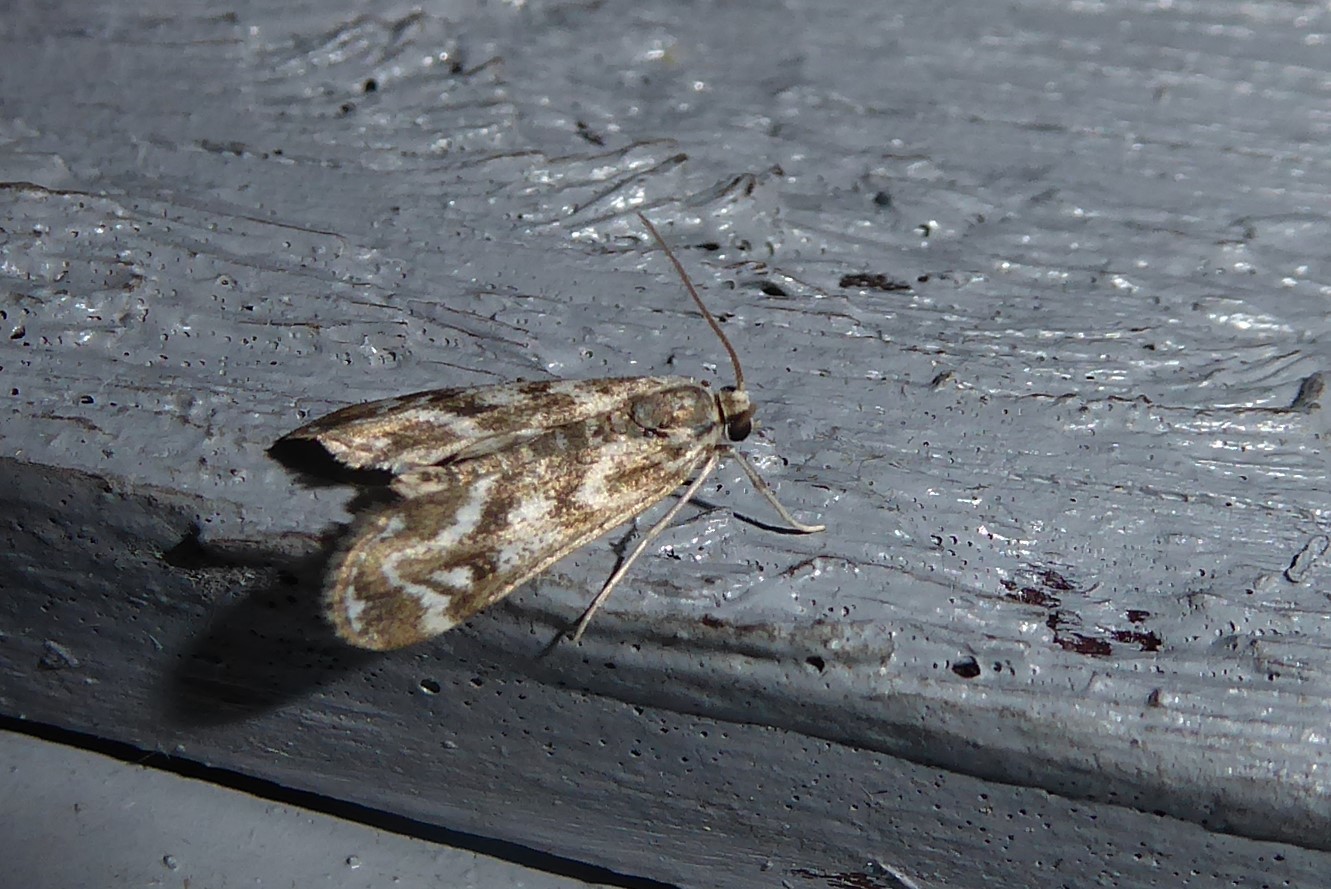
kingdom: Animalia
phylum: Arthropoda
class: Insecta
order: Lepidoptera
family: Crambidae
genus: Hygraula
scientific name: Hygraula nitens
